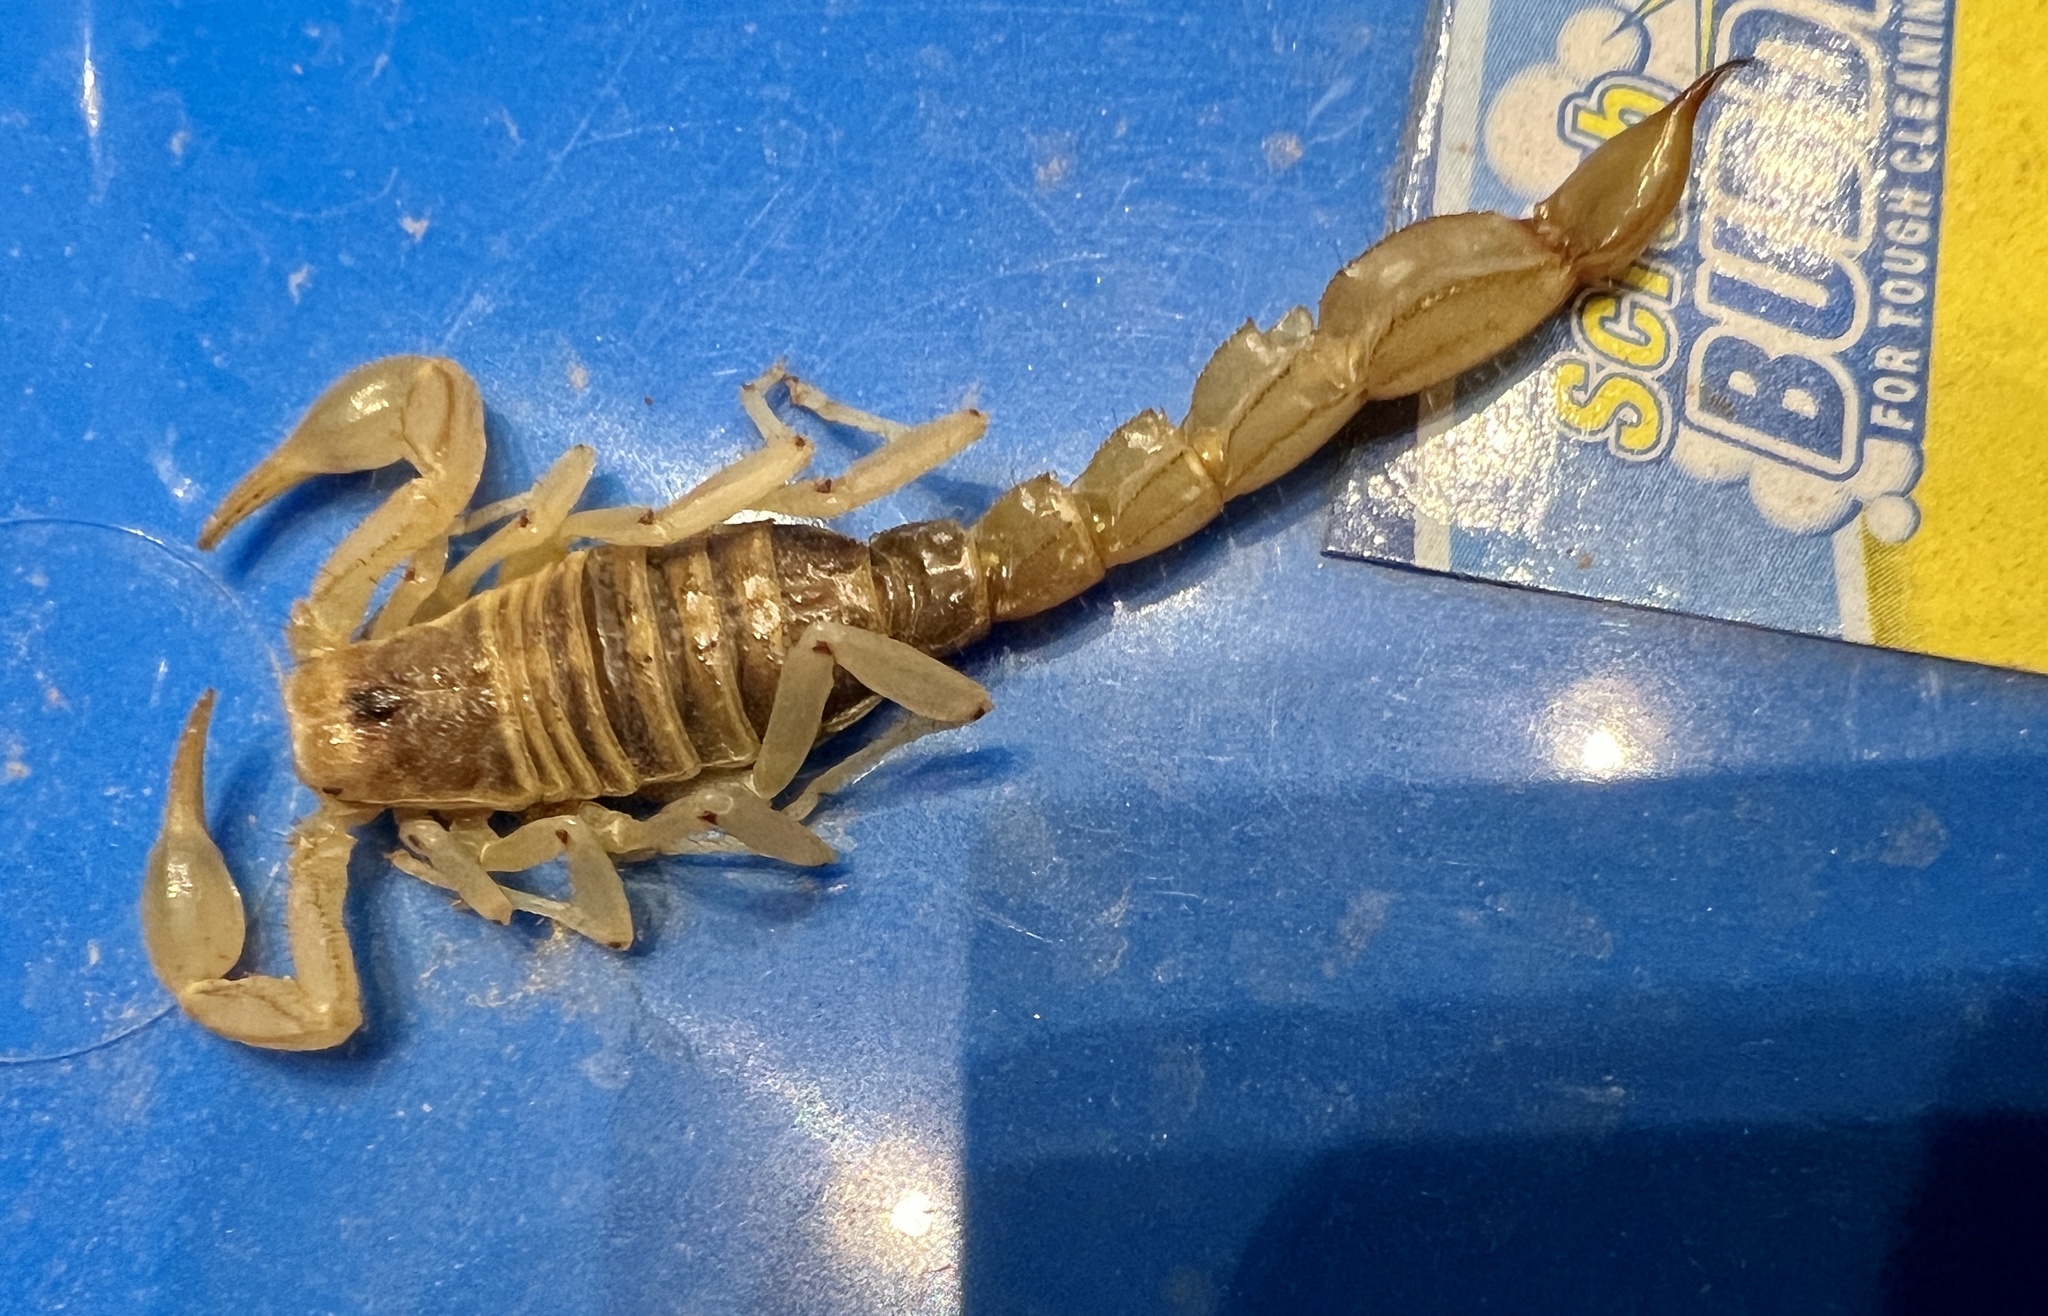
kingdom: Animalia
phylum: Arthropoda
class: Arachnida
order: Scorpiones
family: Vaejovidae
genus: Paravaejovis
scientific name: Paravaejovis spinigerus
